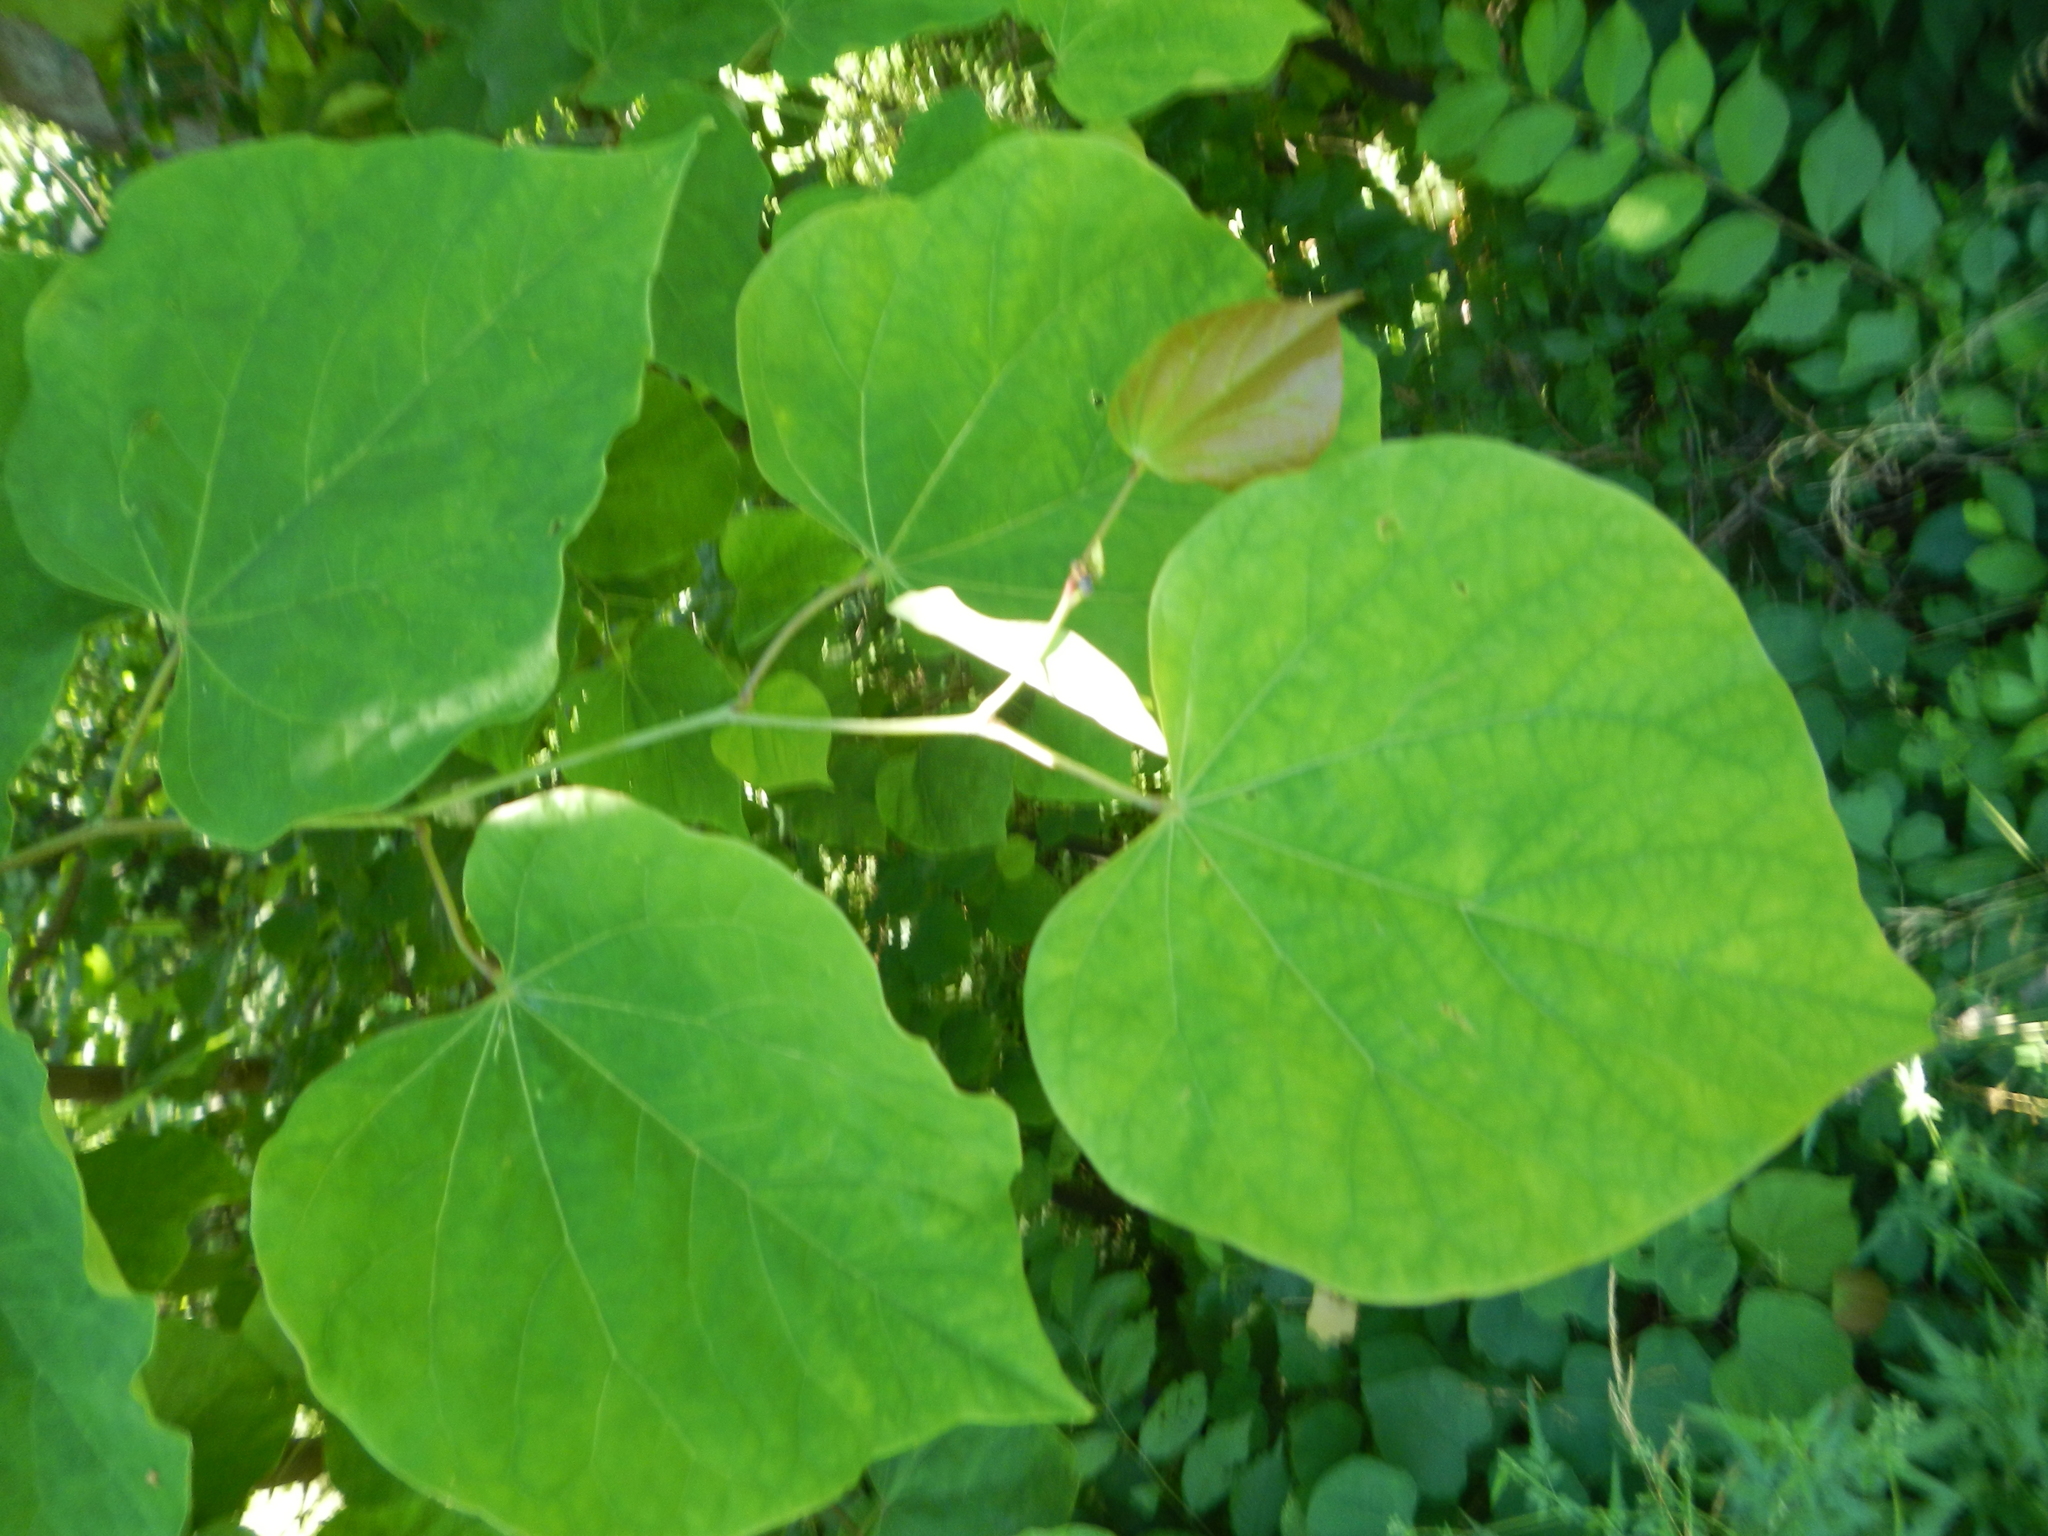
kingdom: Plantae
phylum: Tracheophyta
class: Magnoliopsida
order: Fabales
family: Fabaceae
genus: Cercis
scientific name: Cercis canadensis
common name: Eastern redbud
